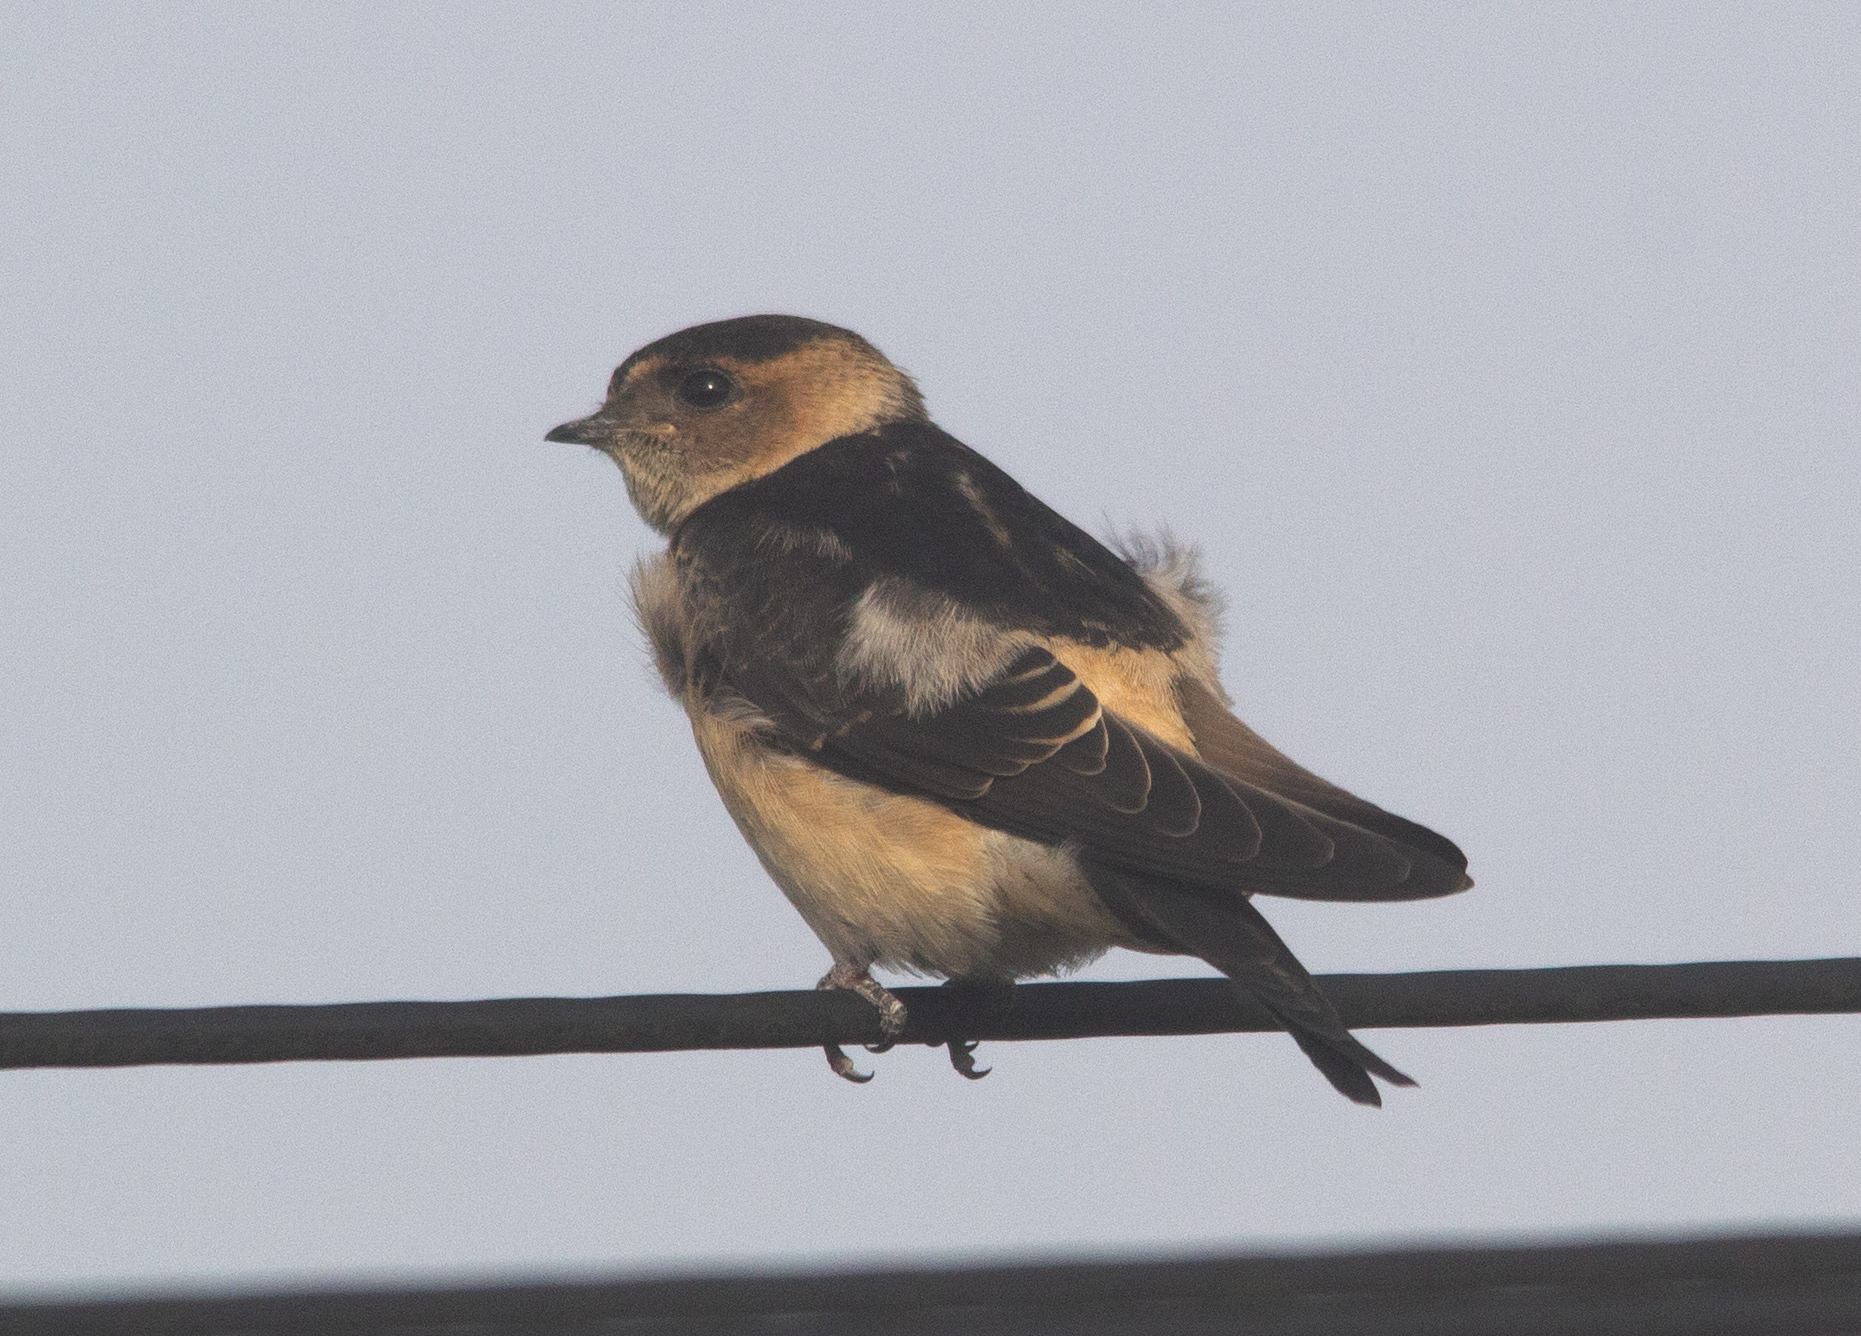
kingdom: Animalia
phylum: Chordata
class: Aves
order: Passeriformes
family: Hirundinidae
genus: Cecropis
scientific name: Cecropis daurica
